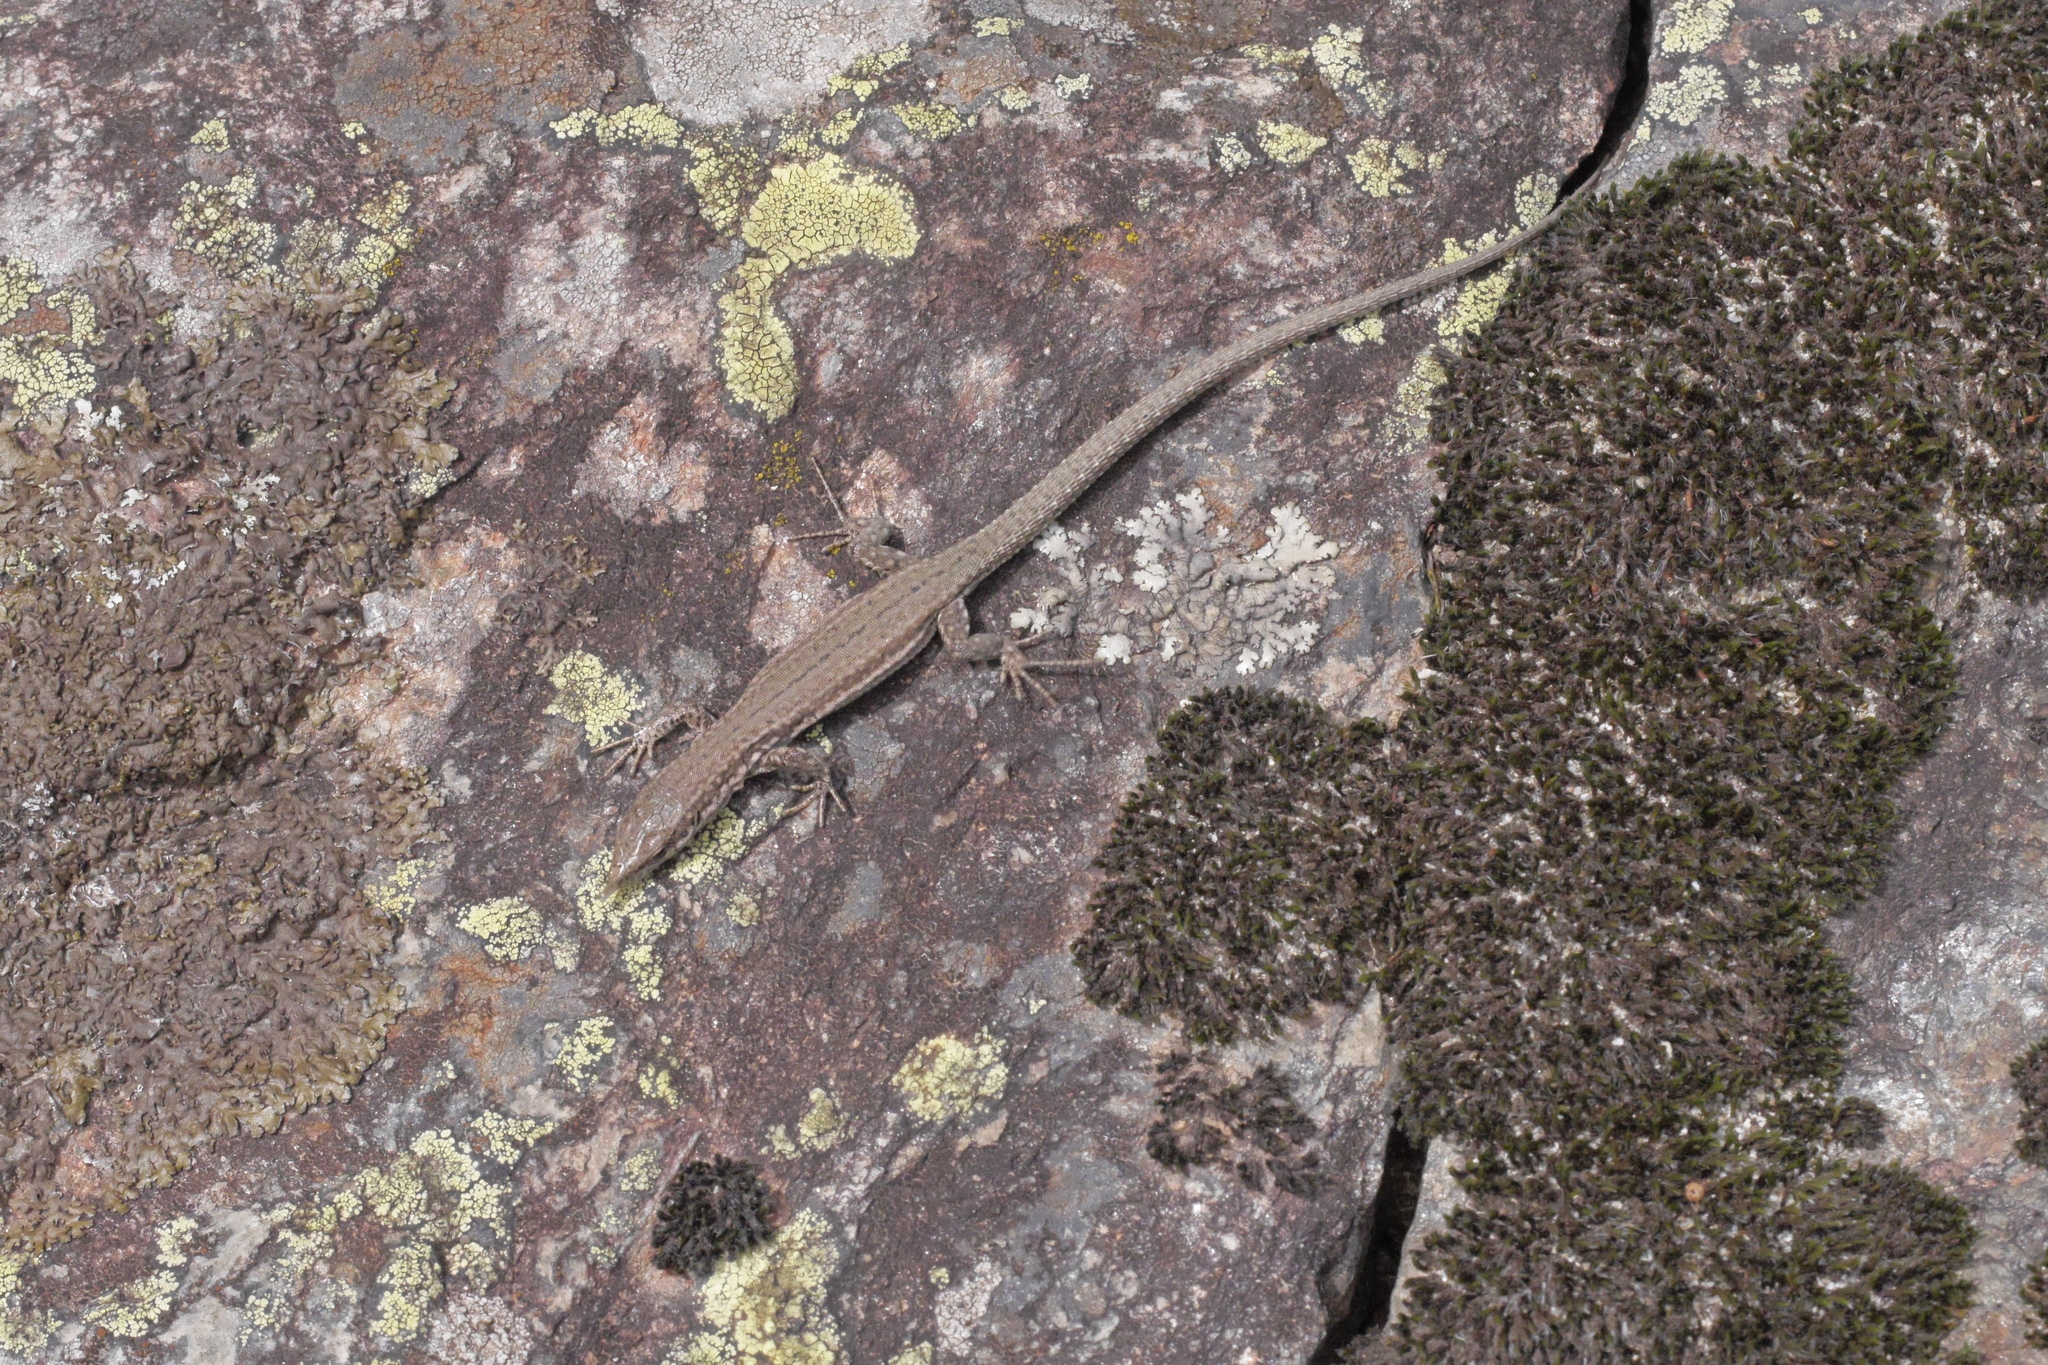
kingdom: Animalia
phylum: Chordata
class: Squamata
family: Lacertidae
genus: Podarcis
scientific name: Podarcis liolepis
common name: Catalonian wall lizard
